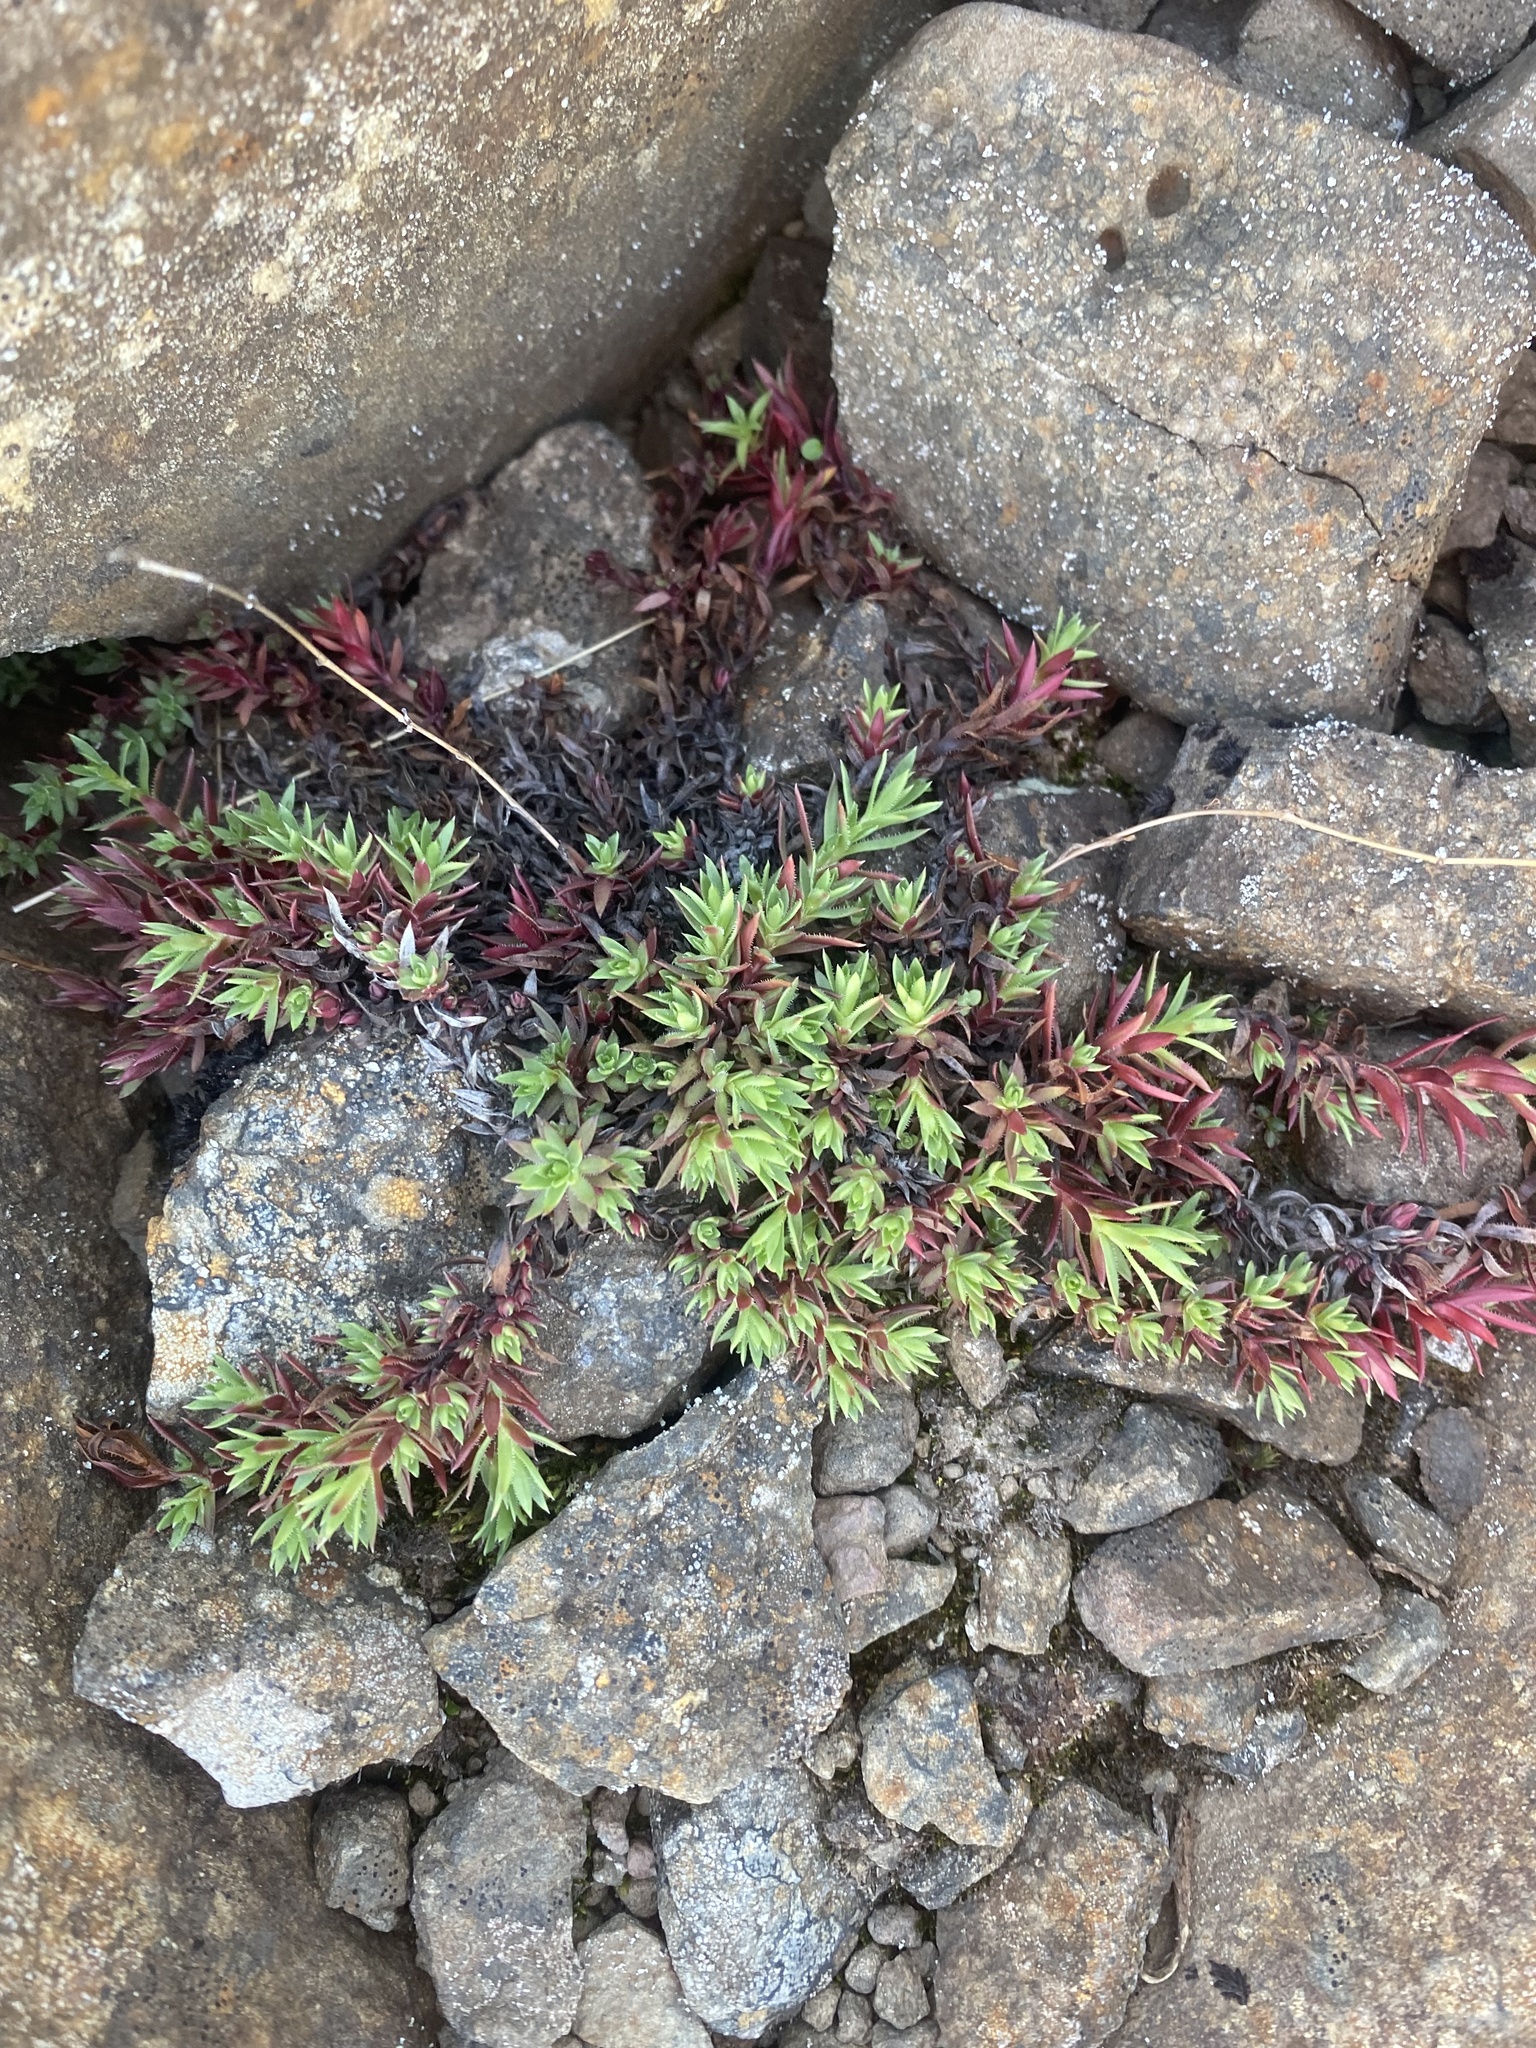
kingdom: Plantae
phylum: Tracheophyta
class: Magnoliopsida
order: Saxifragales
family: Saxifragaceae
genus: Saxifraga
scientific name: Saxifraga
